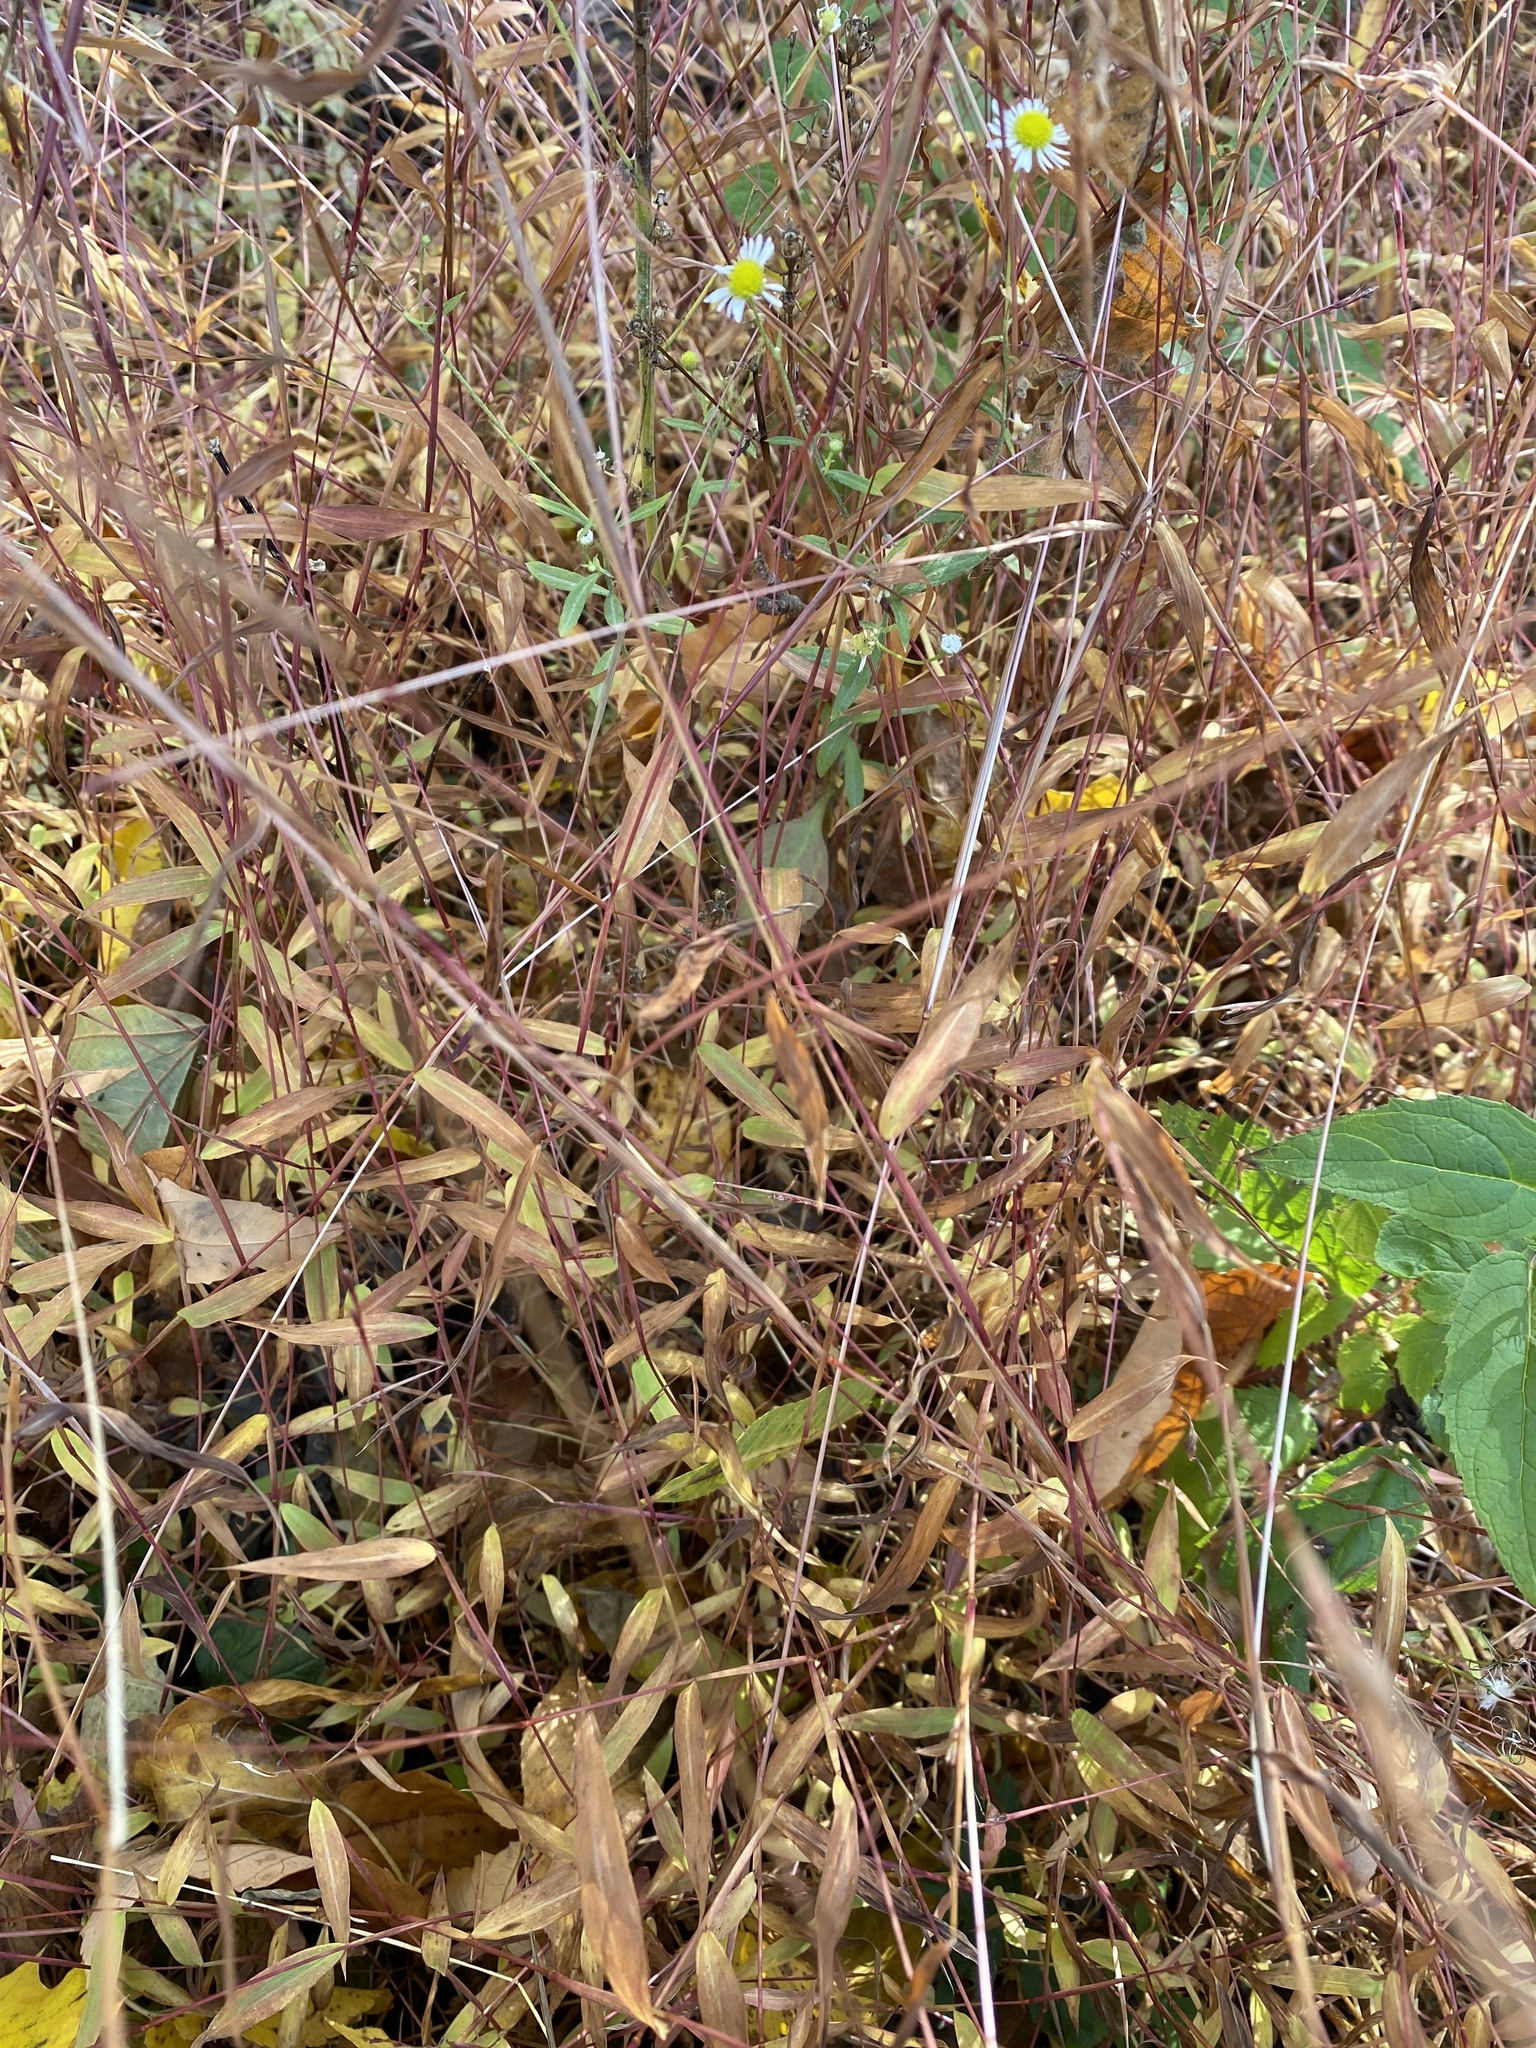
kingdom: Plantae
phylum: Tracheophyta
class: Liliopsida
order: Poales
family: Poaceae
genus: Microstegium
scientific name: Microstegium vimineum
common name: Japanese stiltgrass
